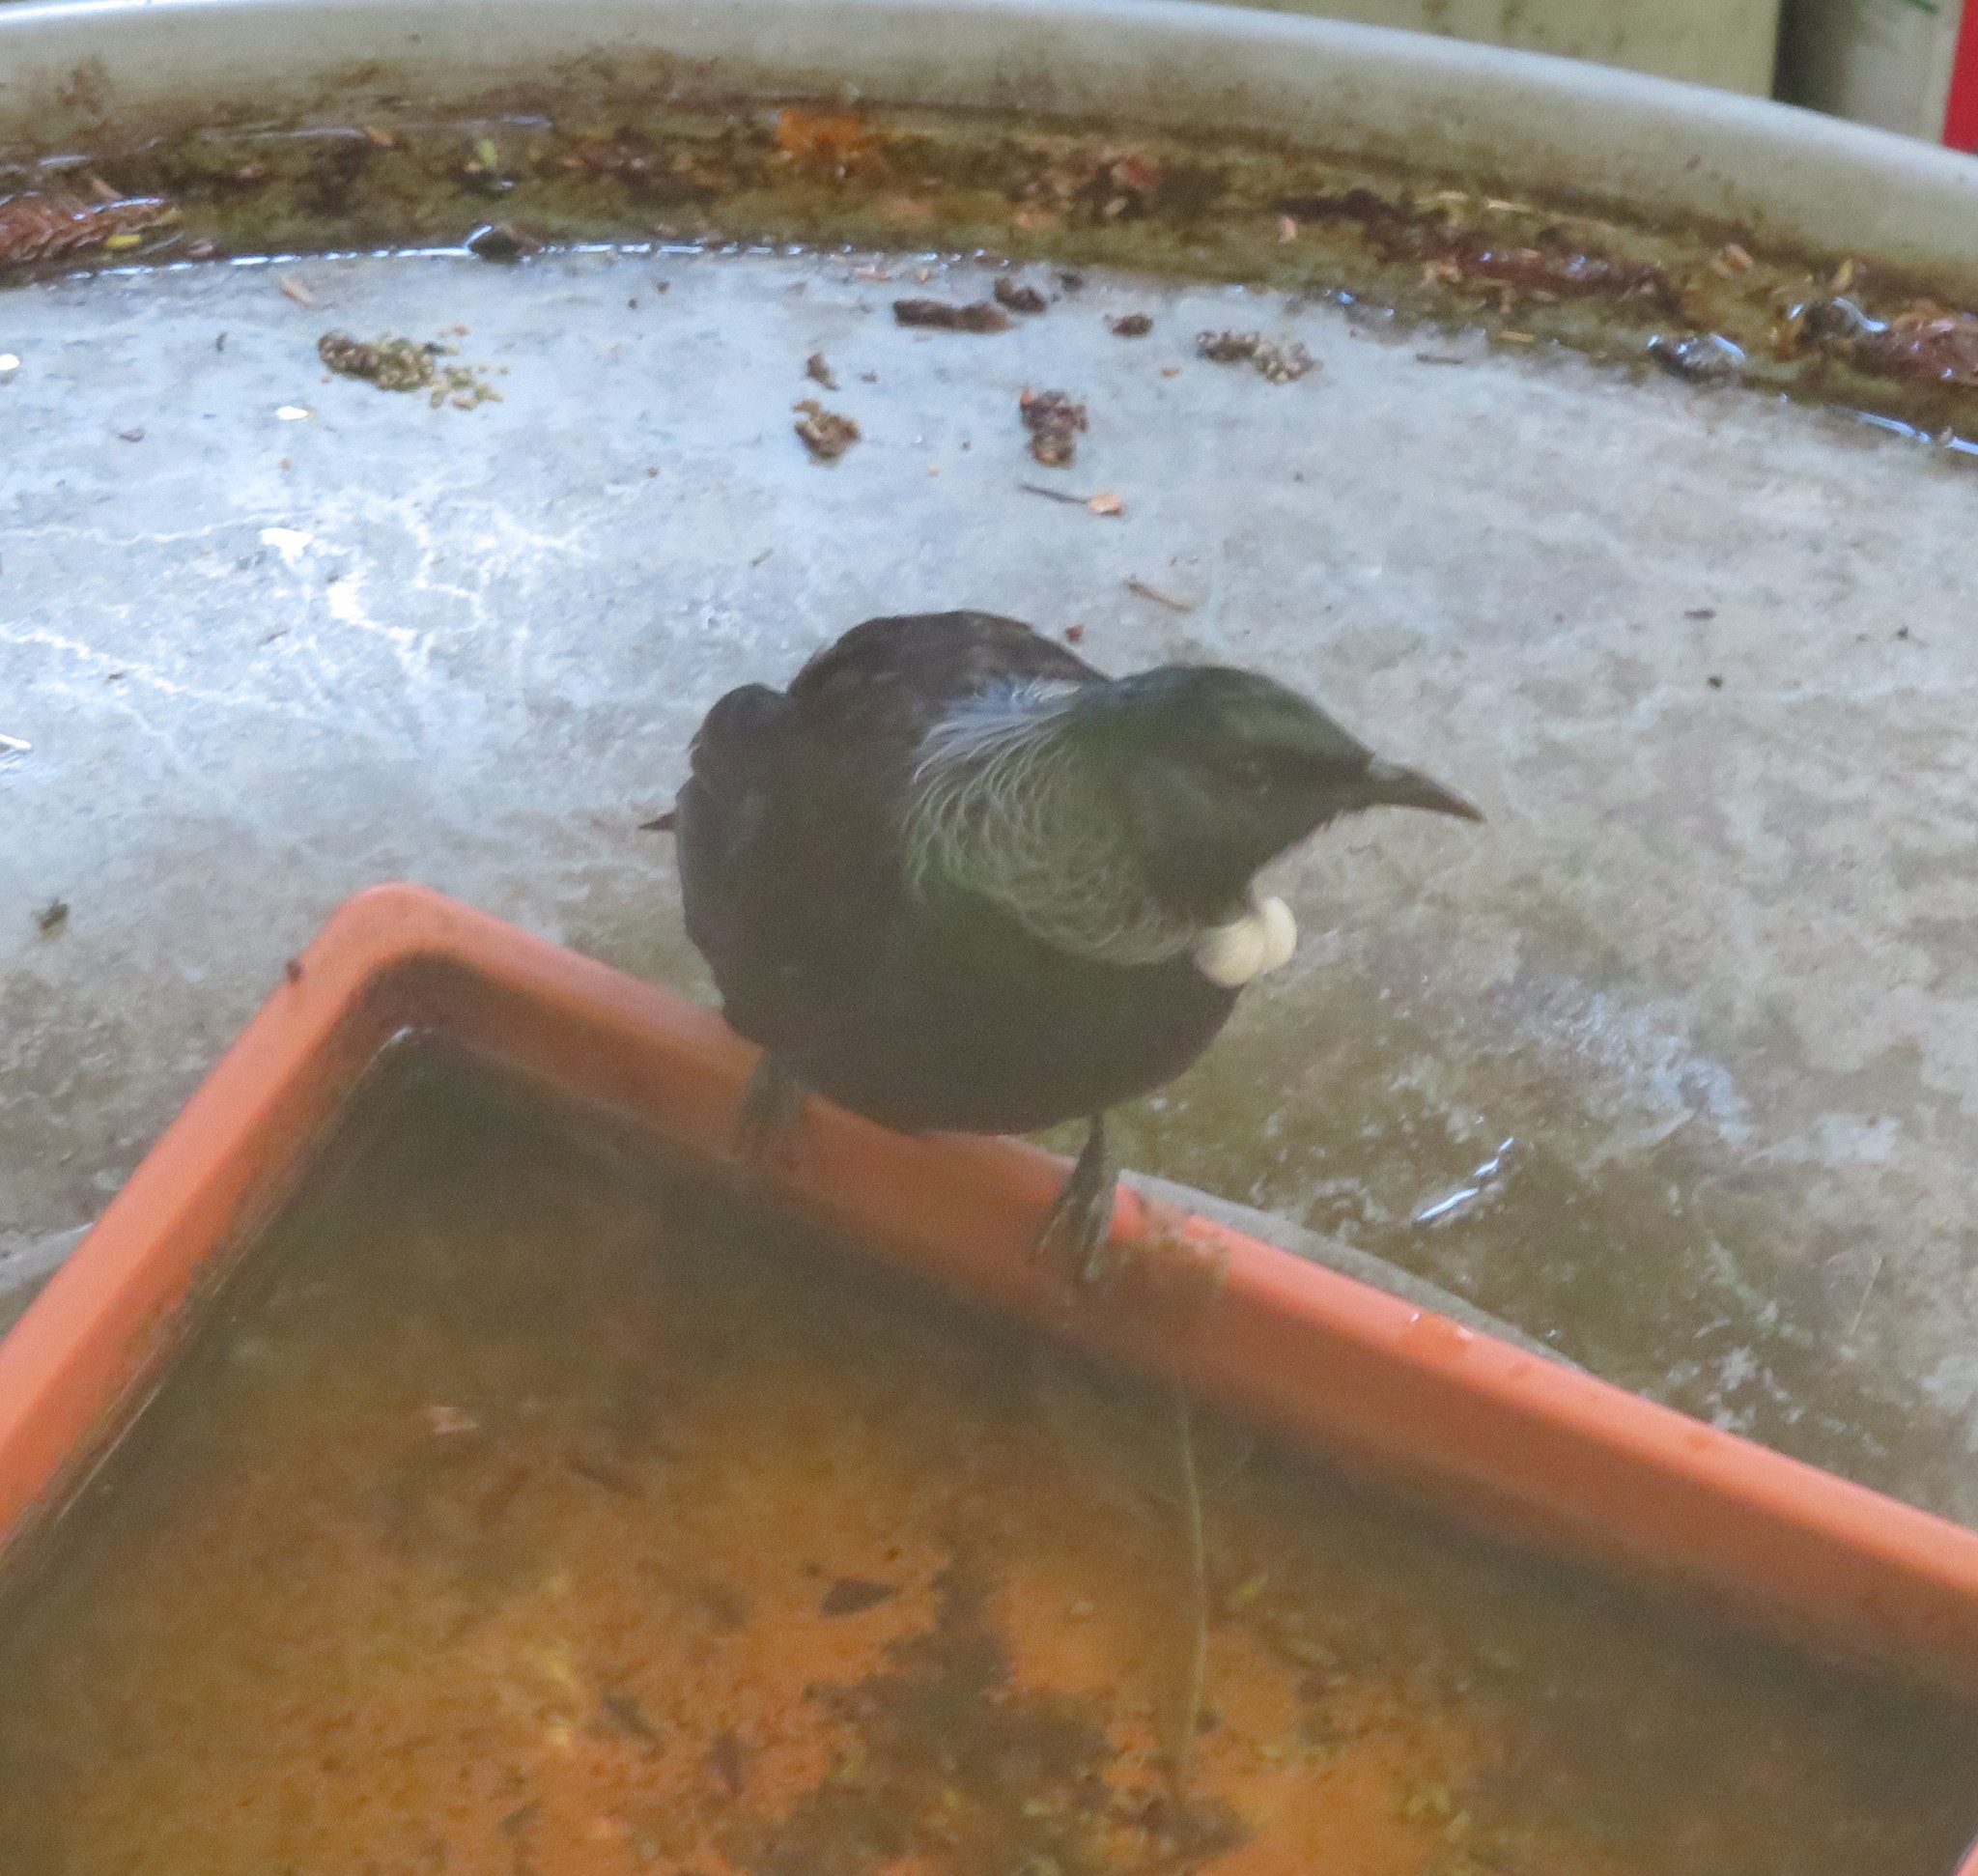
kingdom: Animalia
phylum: Chordata
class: Aves
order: Passeriformes
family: Meliphagidae
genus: Prosthemadera
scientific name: Prosthemadera novaeseelandiae
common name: Tui
